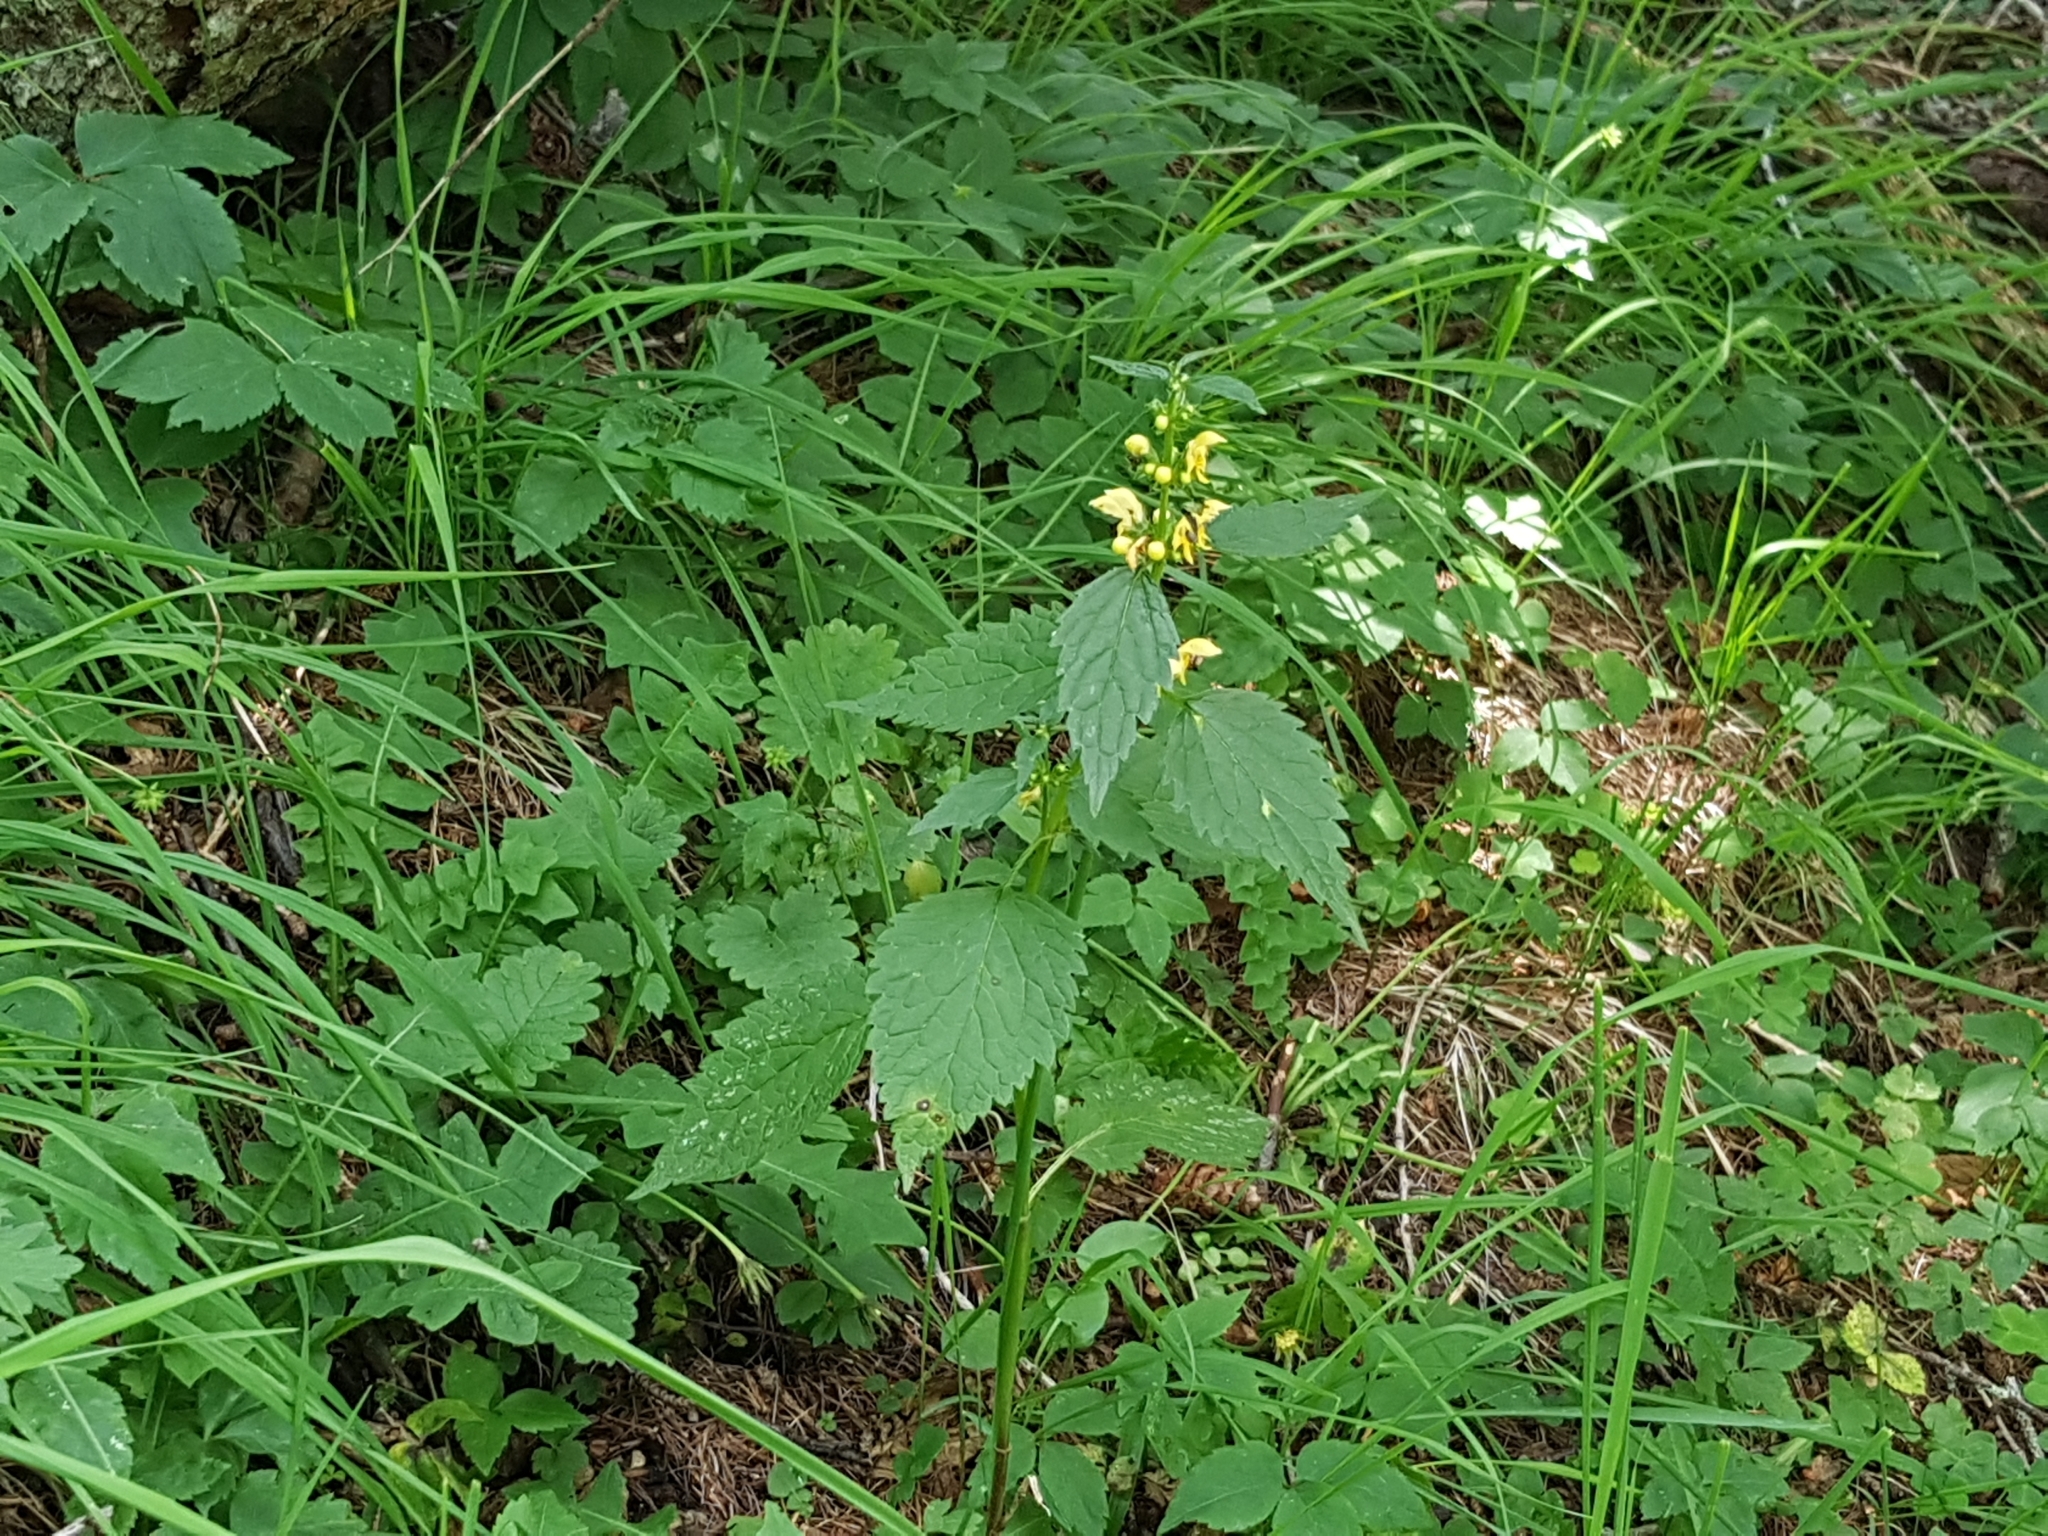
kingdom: Plantae
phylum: Tracheophyta
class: Magnoliopsida
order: Lamiales
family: Lamiaceae
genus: Lamium
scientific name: Lamium galeobdolon
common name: Yellow archangel
